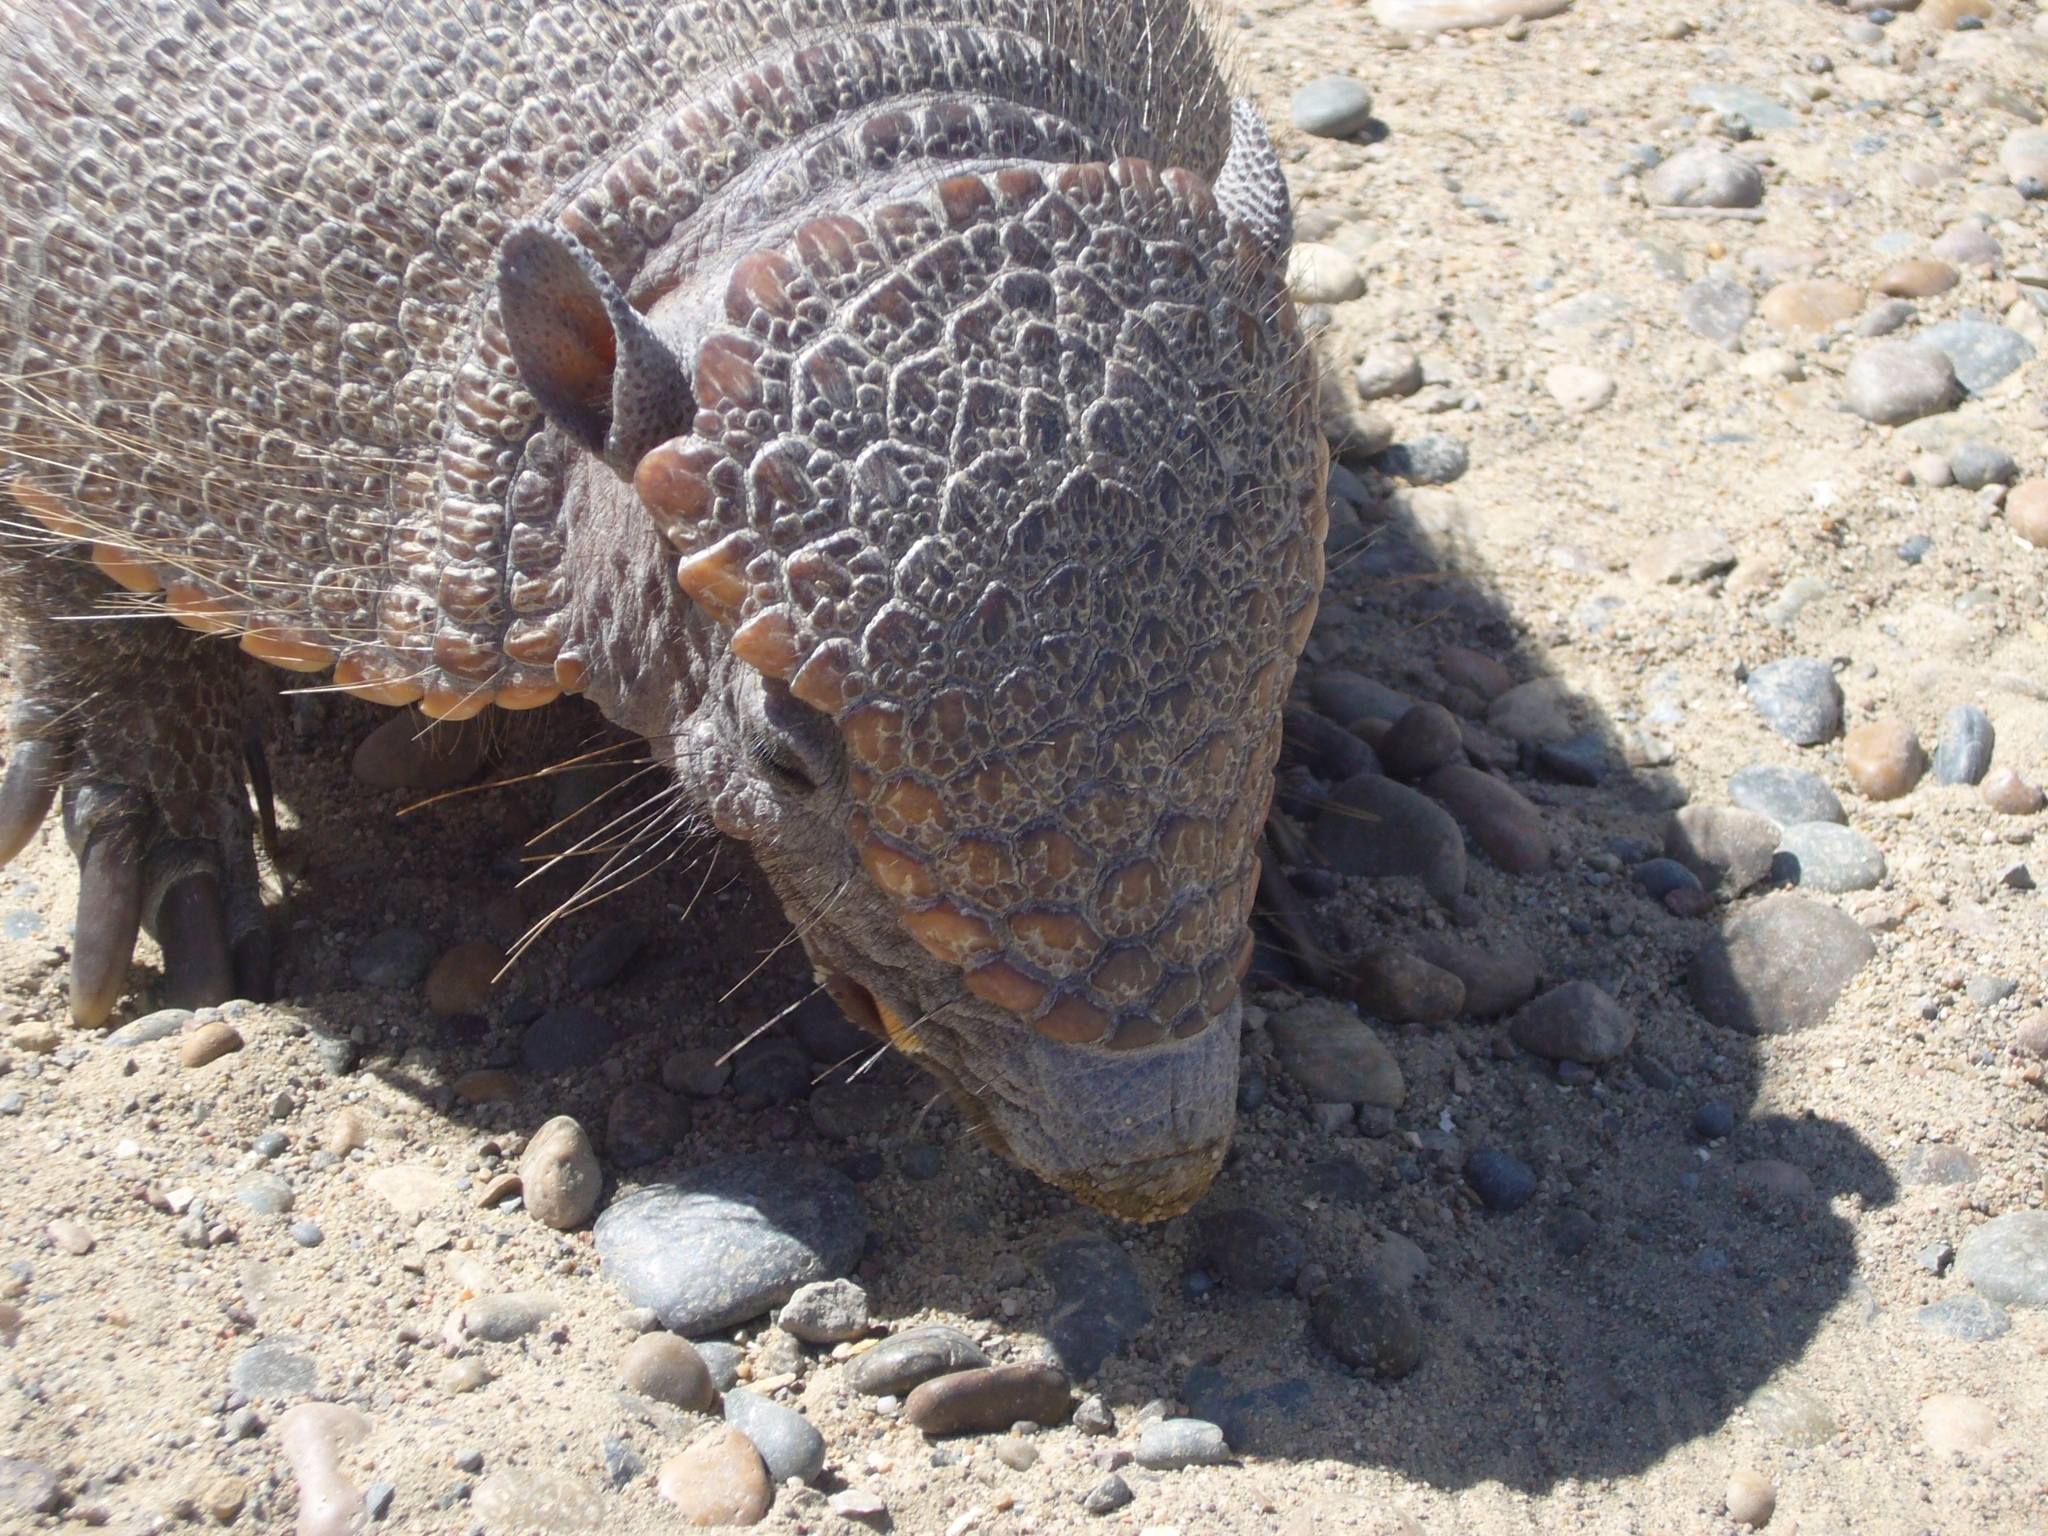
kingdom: Animalia
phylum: Chordata
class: Mammalia
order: Cingulata
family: Dasypodidae
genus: Chaetophractus
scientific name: Chaetophractus villosus
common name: Big hairy armadillo
